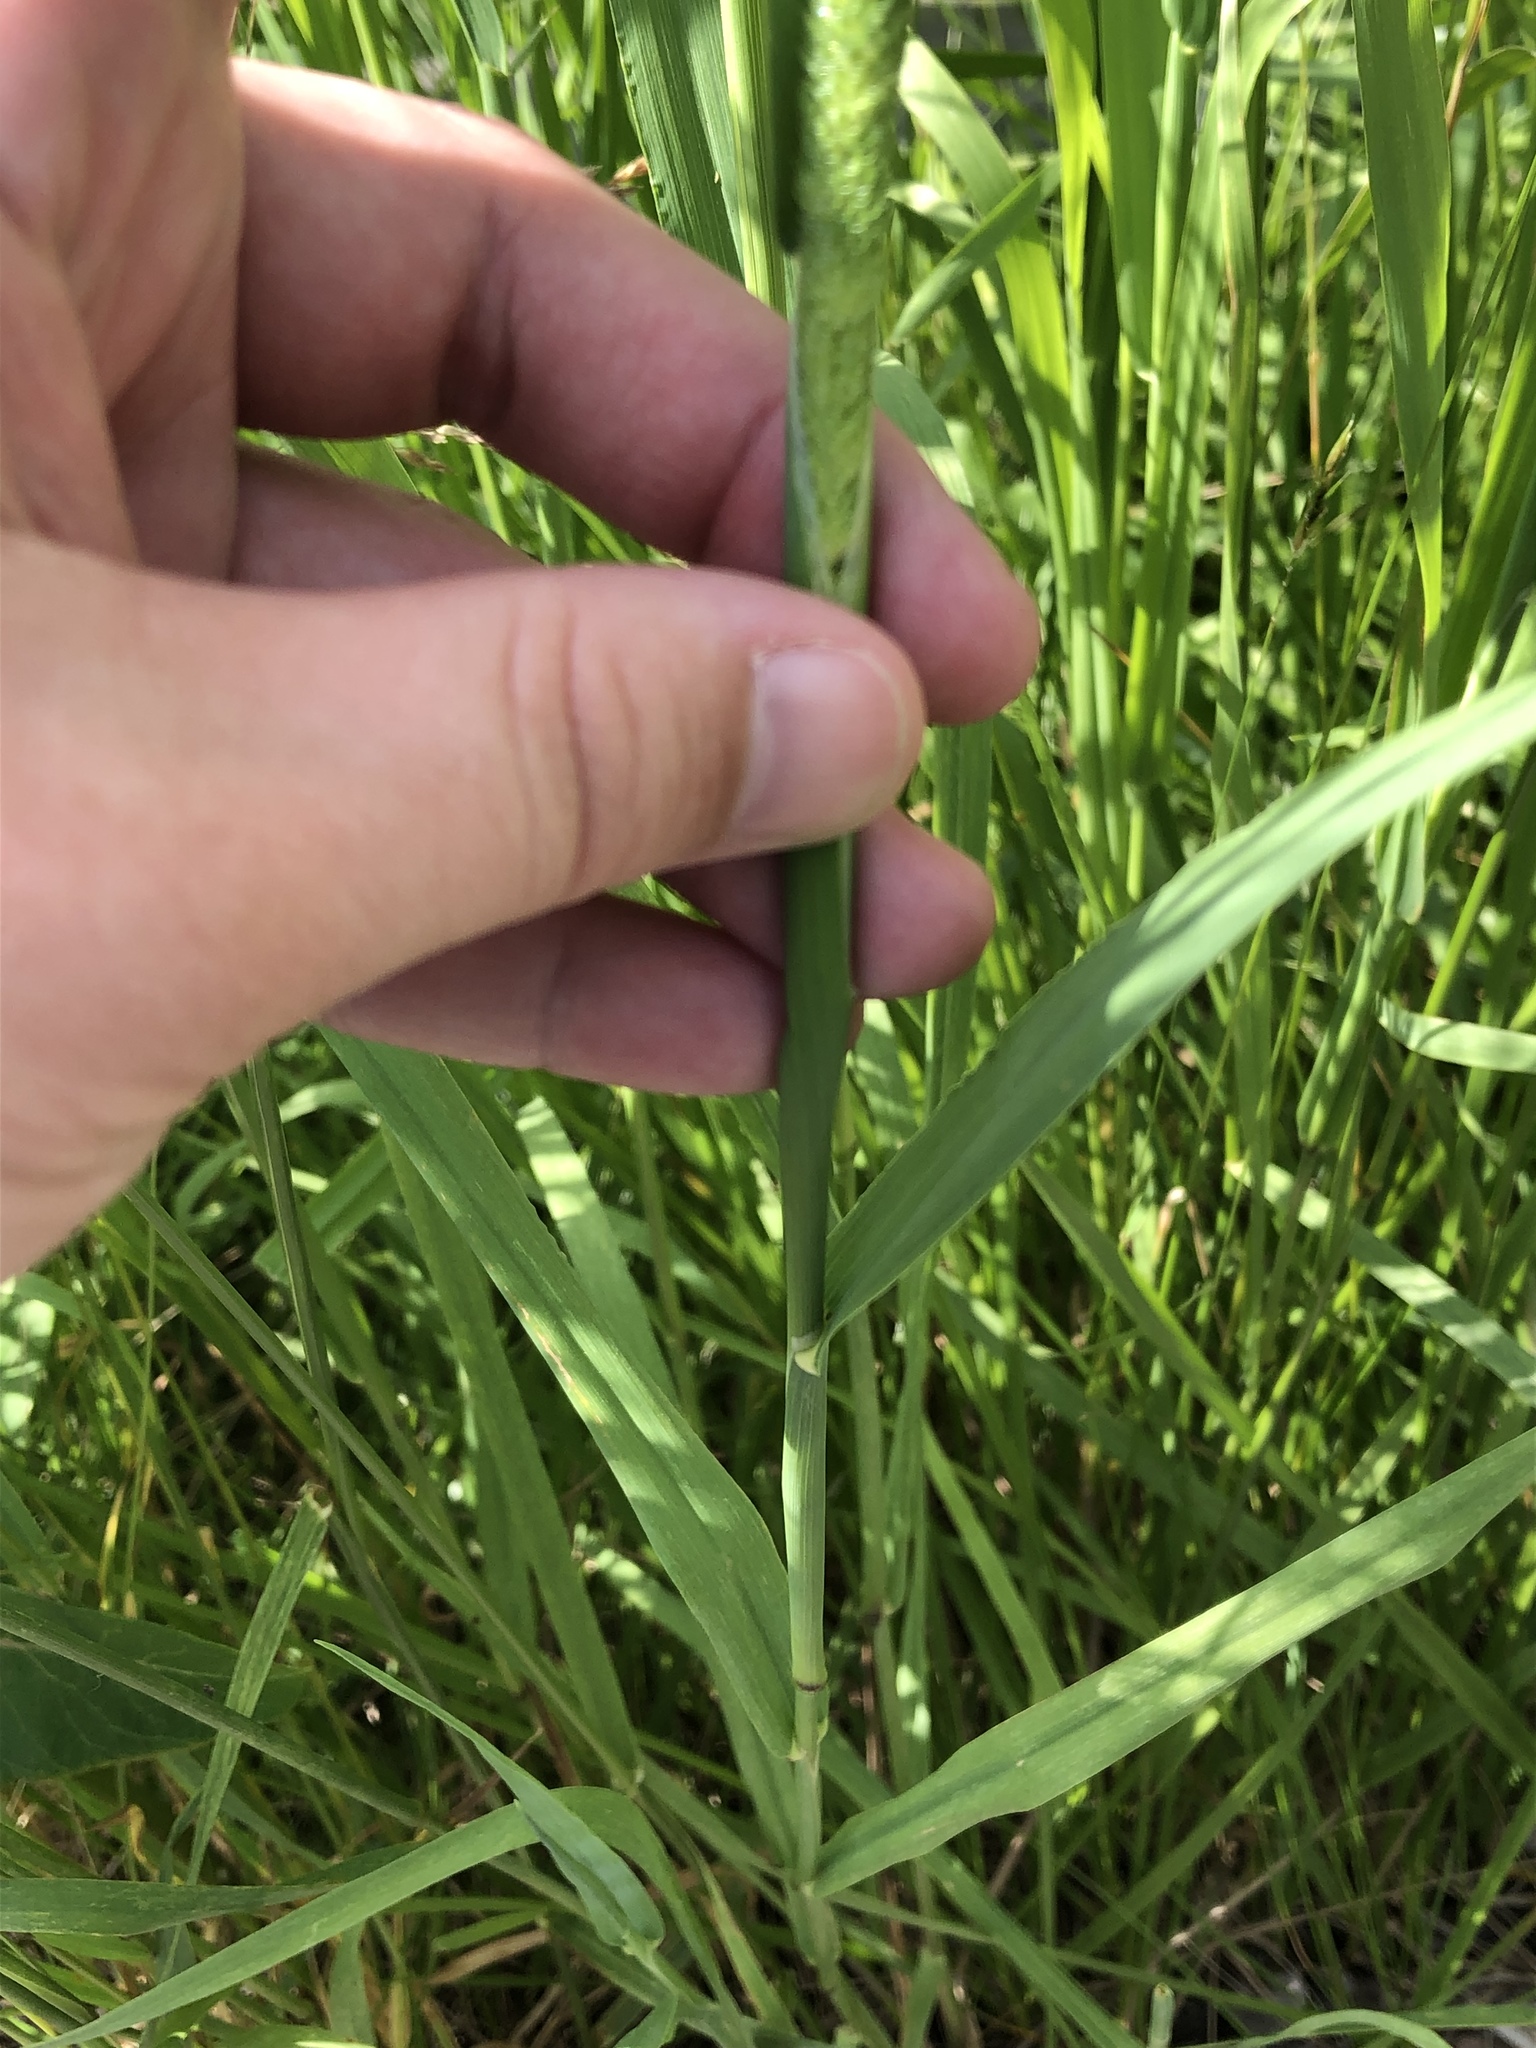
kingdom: Plantae
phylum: Tracheophyta
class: Liliopsida
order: Poales
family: Poaceae
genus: Phleum
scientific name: Phleum pratense
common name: Timothy grass
